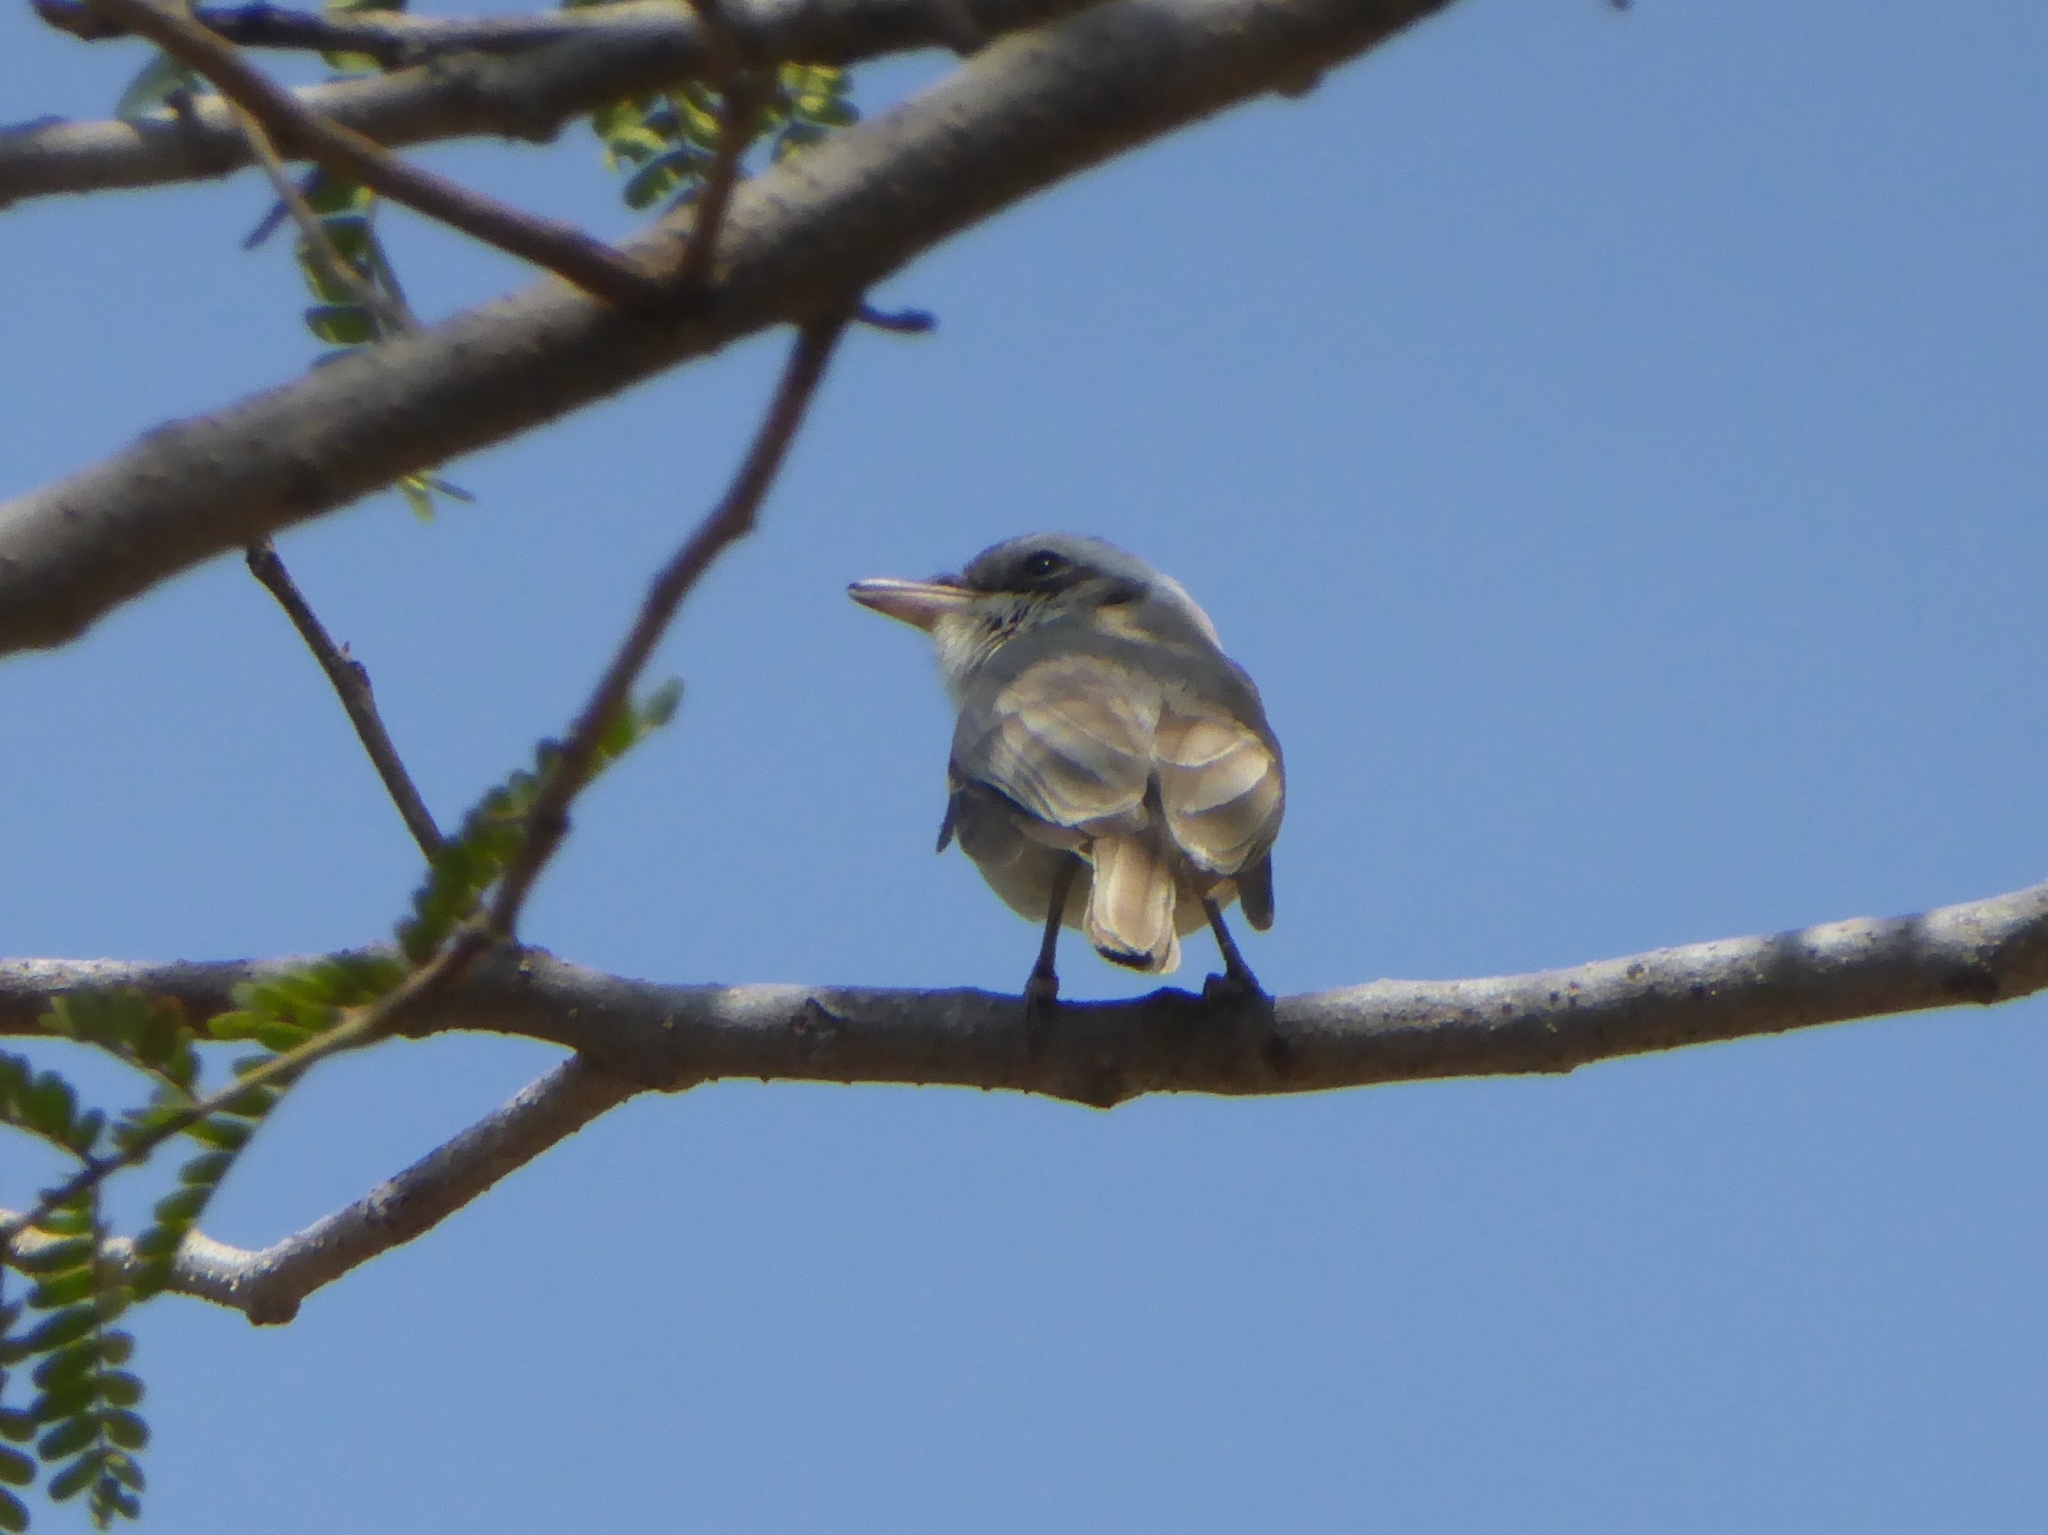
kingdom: Animalia
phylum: Chordata
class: Aves
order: Passeriformes
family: Tephrodornithidae
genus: Tephrodornis
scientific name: Tephrodornis pondicerianus
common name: Common woodshrike
